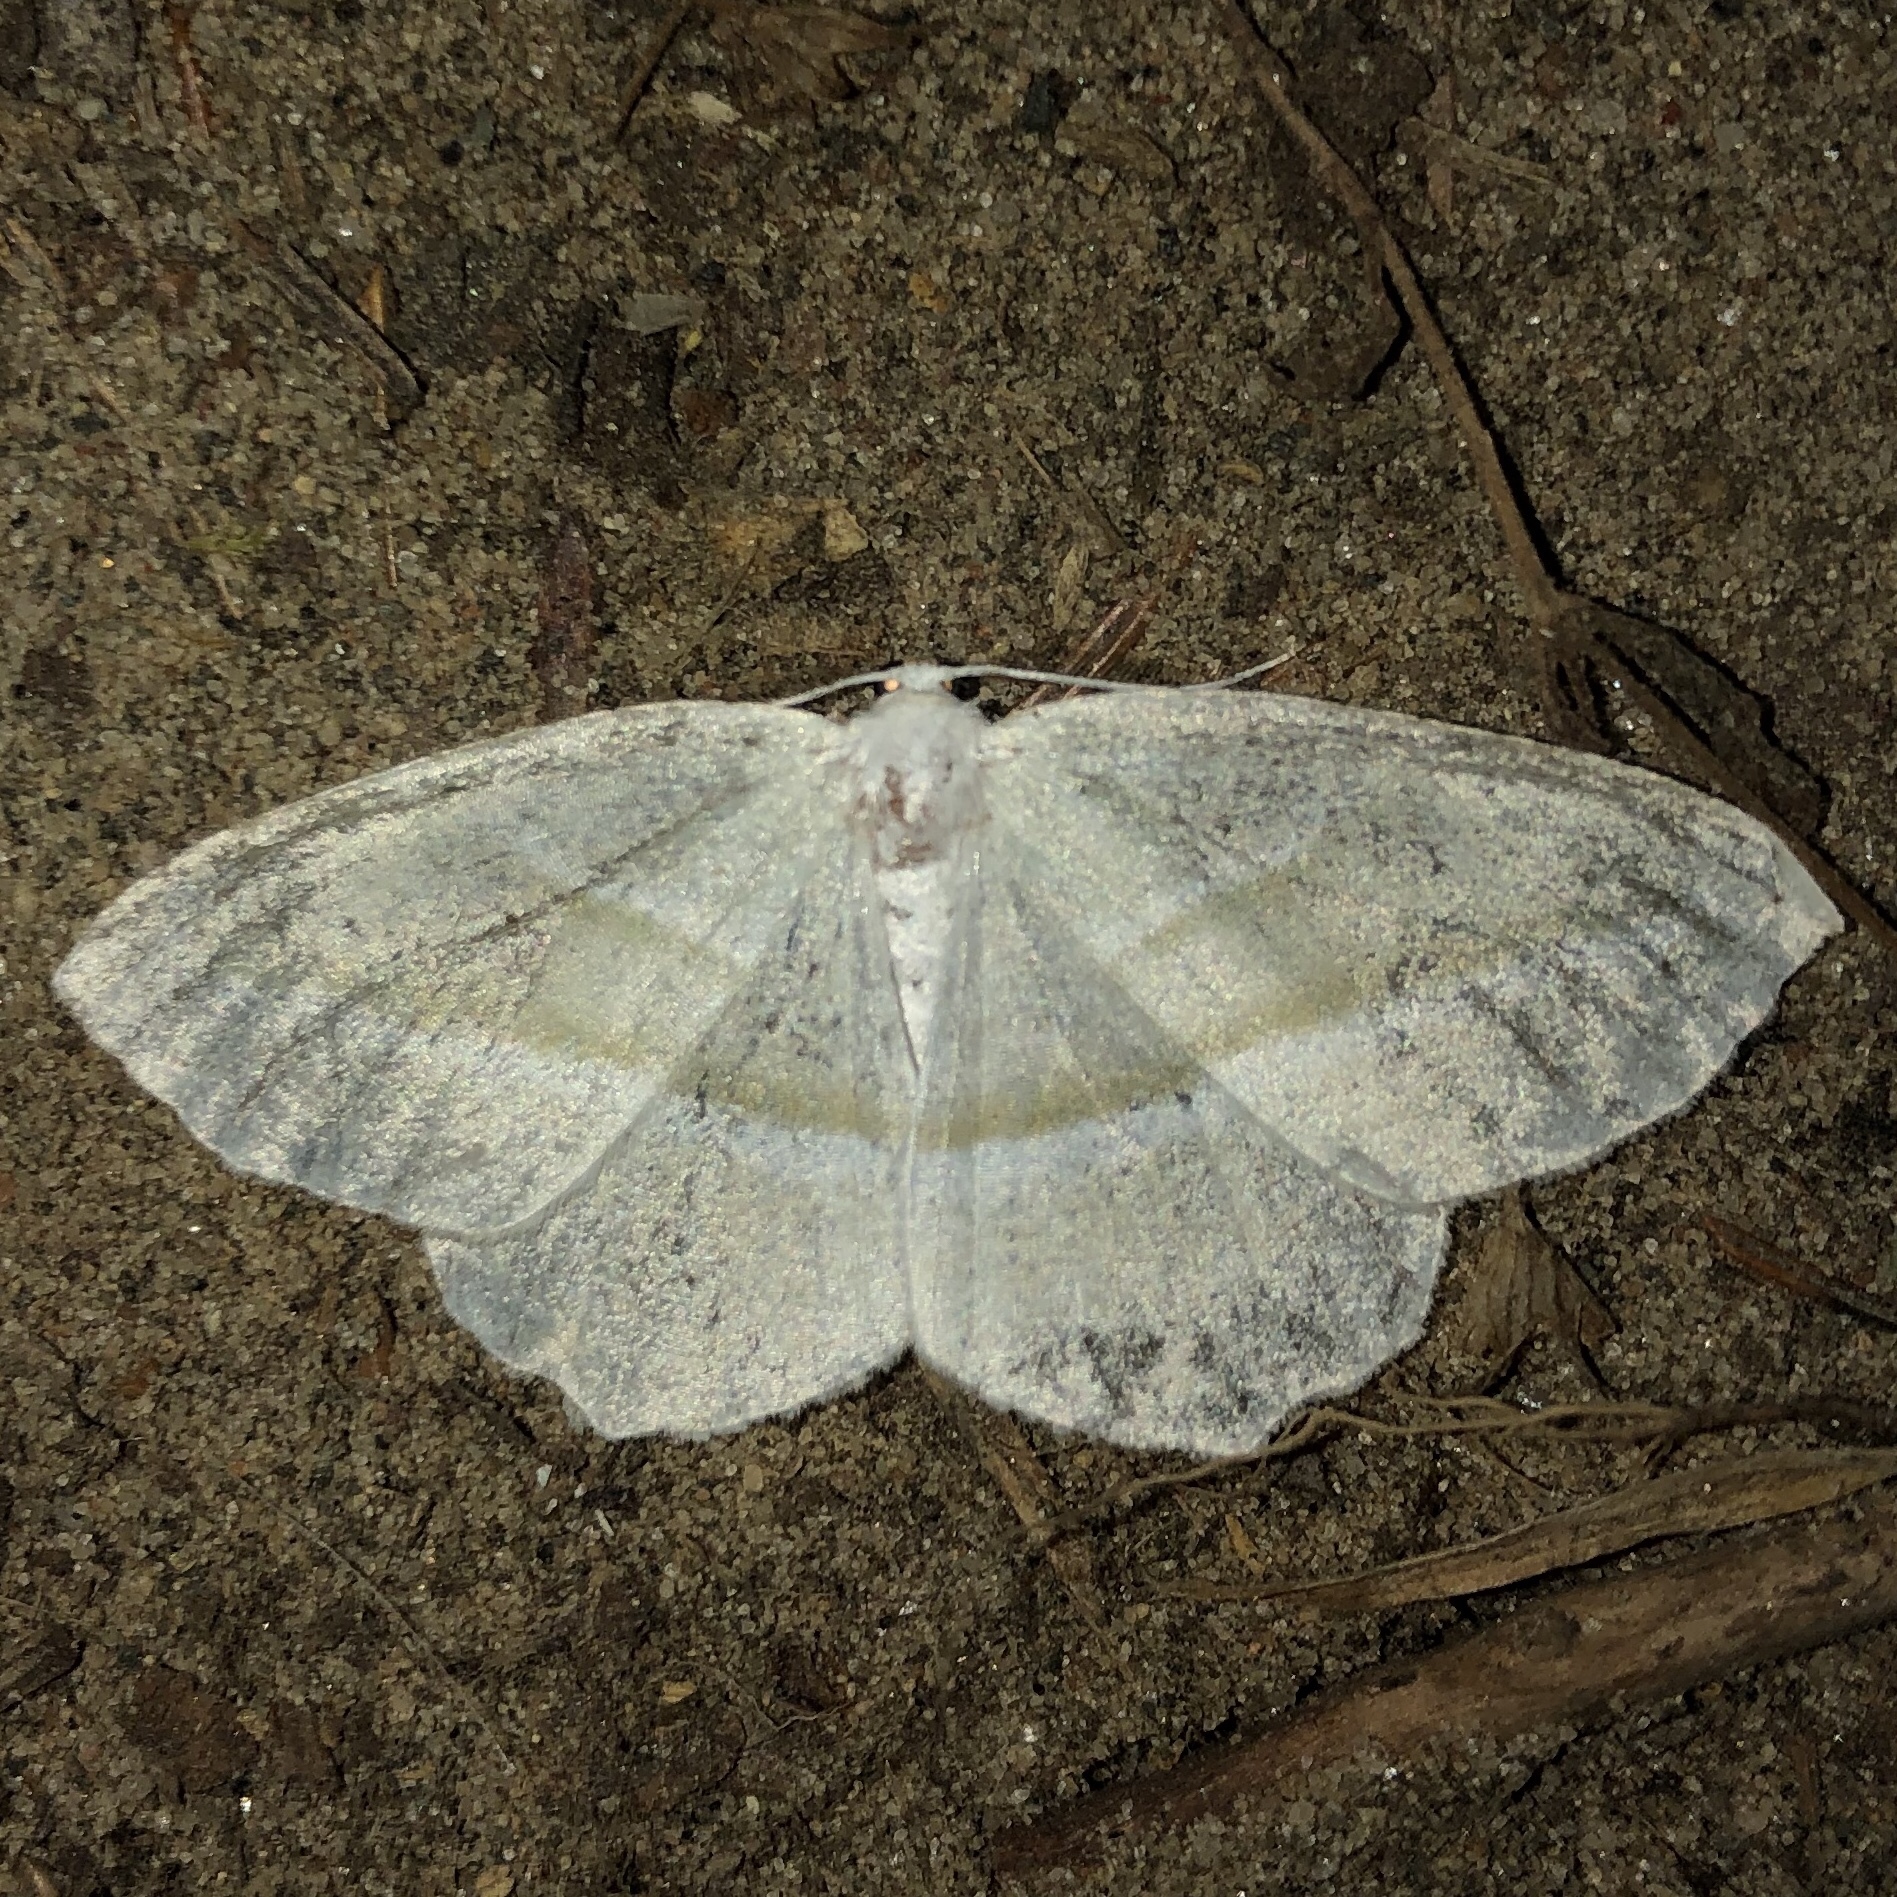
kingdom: Animalia
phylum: Arthropoda
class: Insecta
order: Lepidoptera
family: Geometridae
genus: Campaea
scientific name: Campaea perlata
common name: Fringed looper
